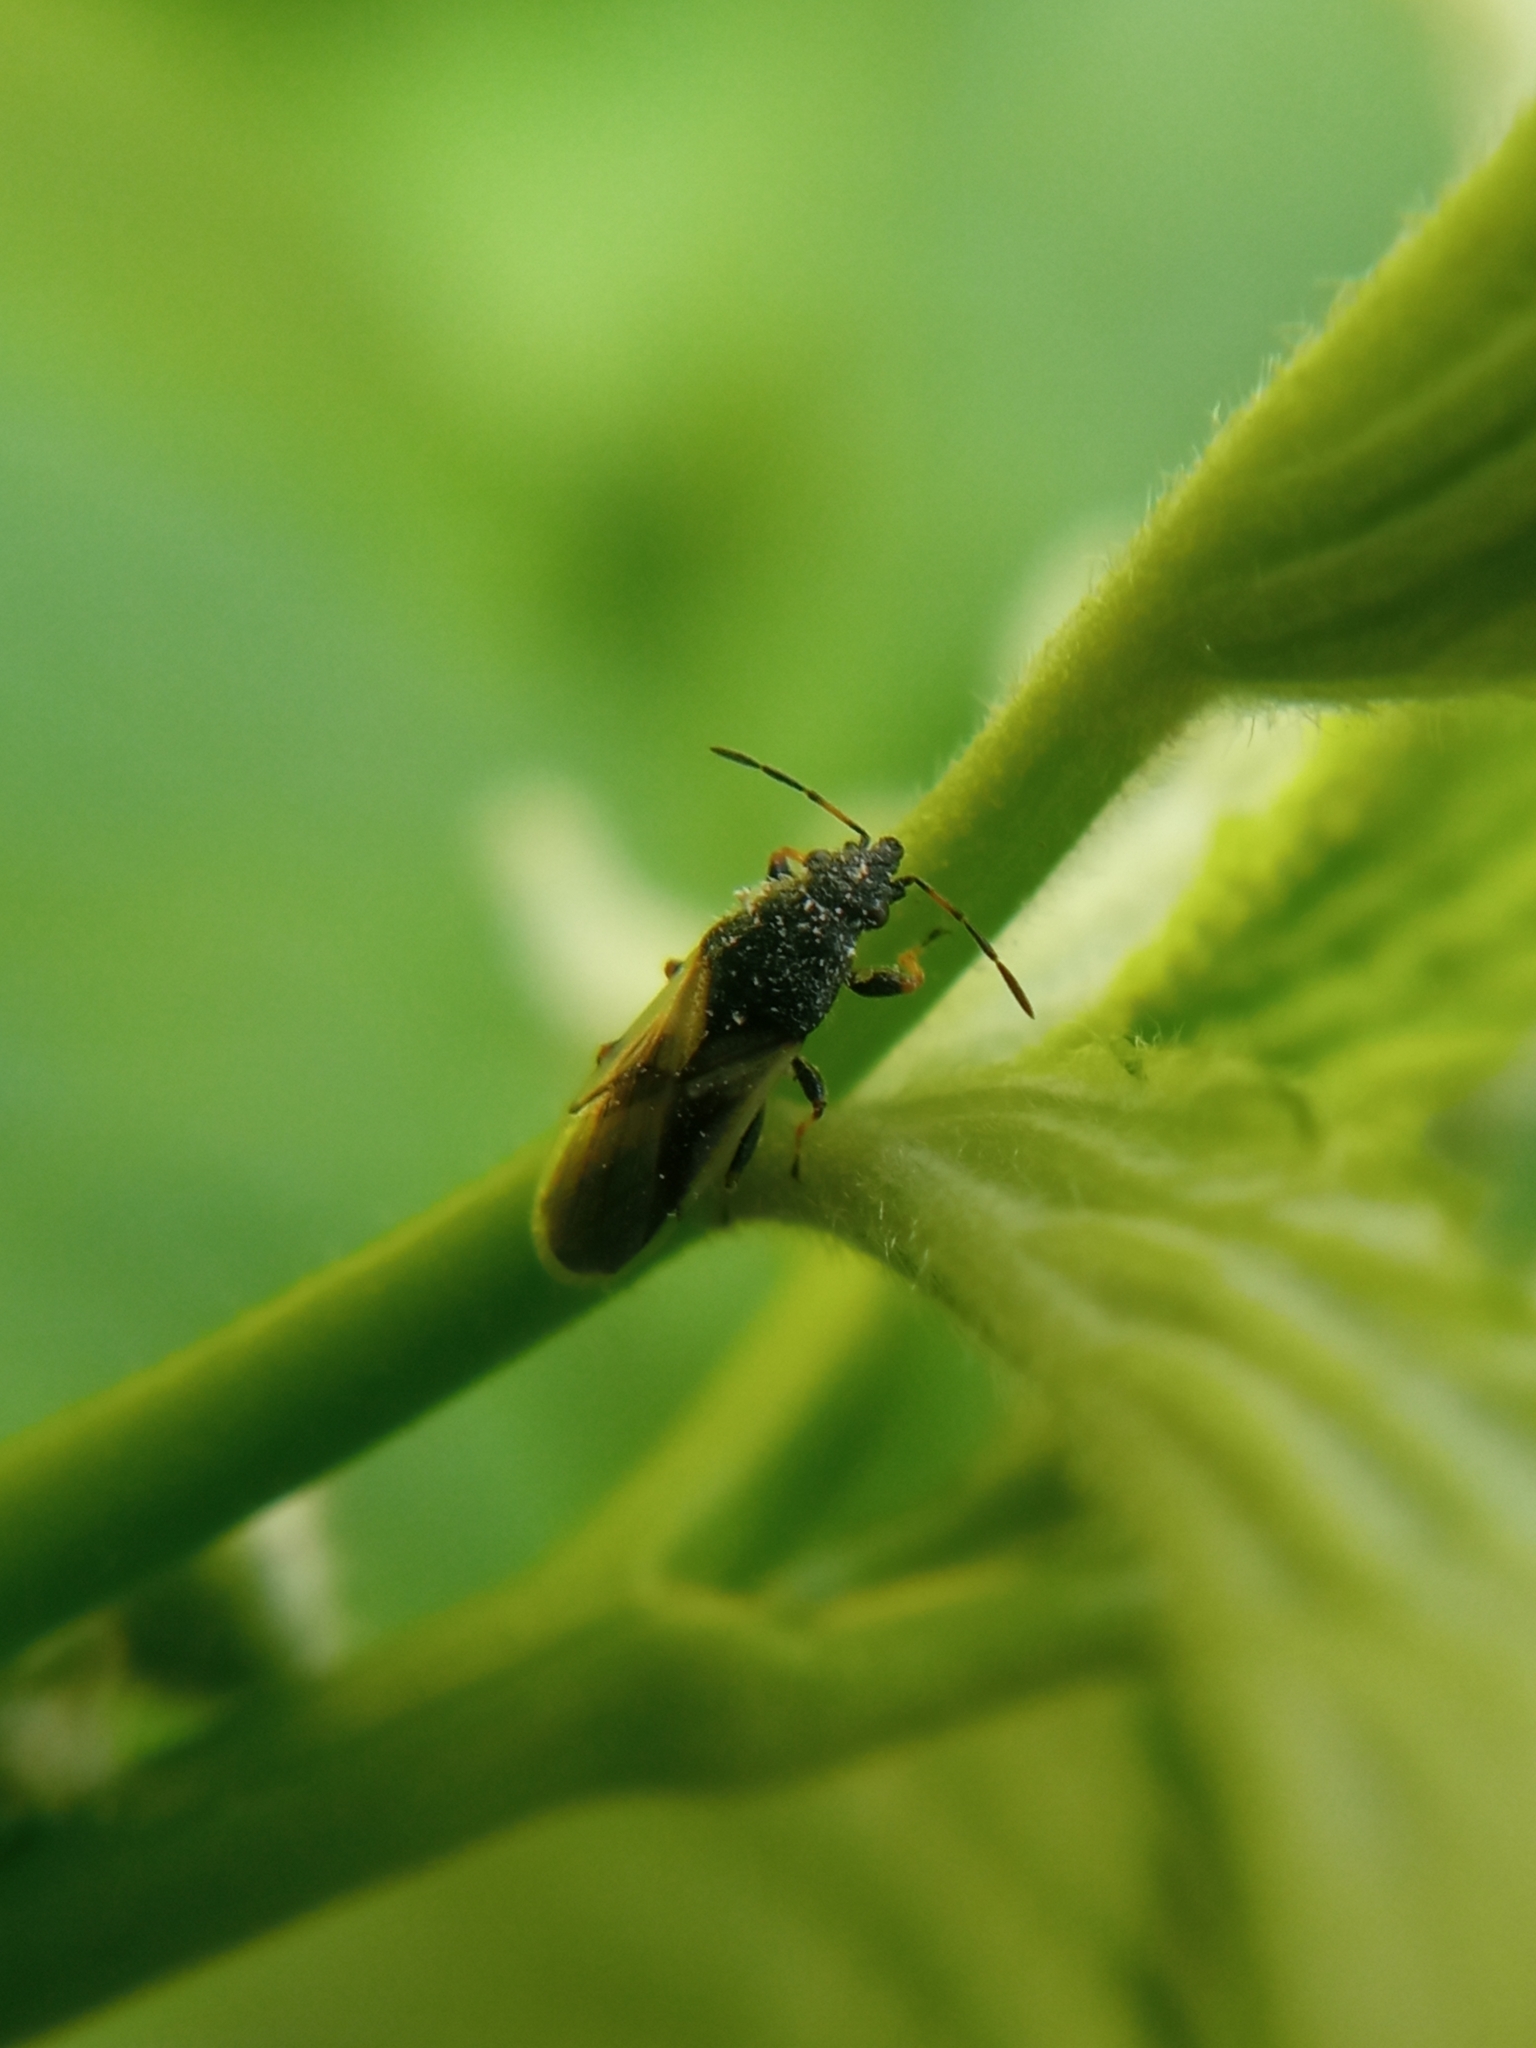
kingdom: Animalia
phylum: Arthropoda
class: Insecta
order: Hemiptera
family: Oxycarenidae
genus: Metopoplax
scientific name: Metopoplax ditomoides
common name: Seed bug
